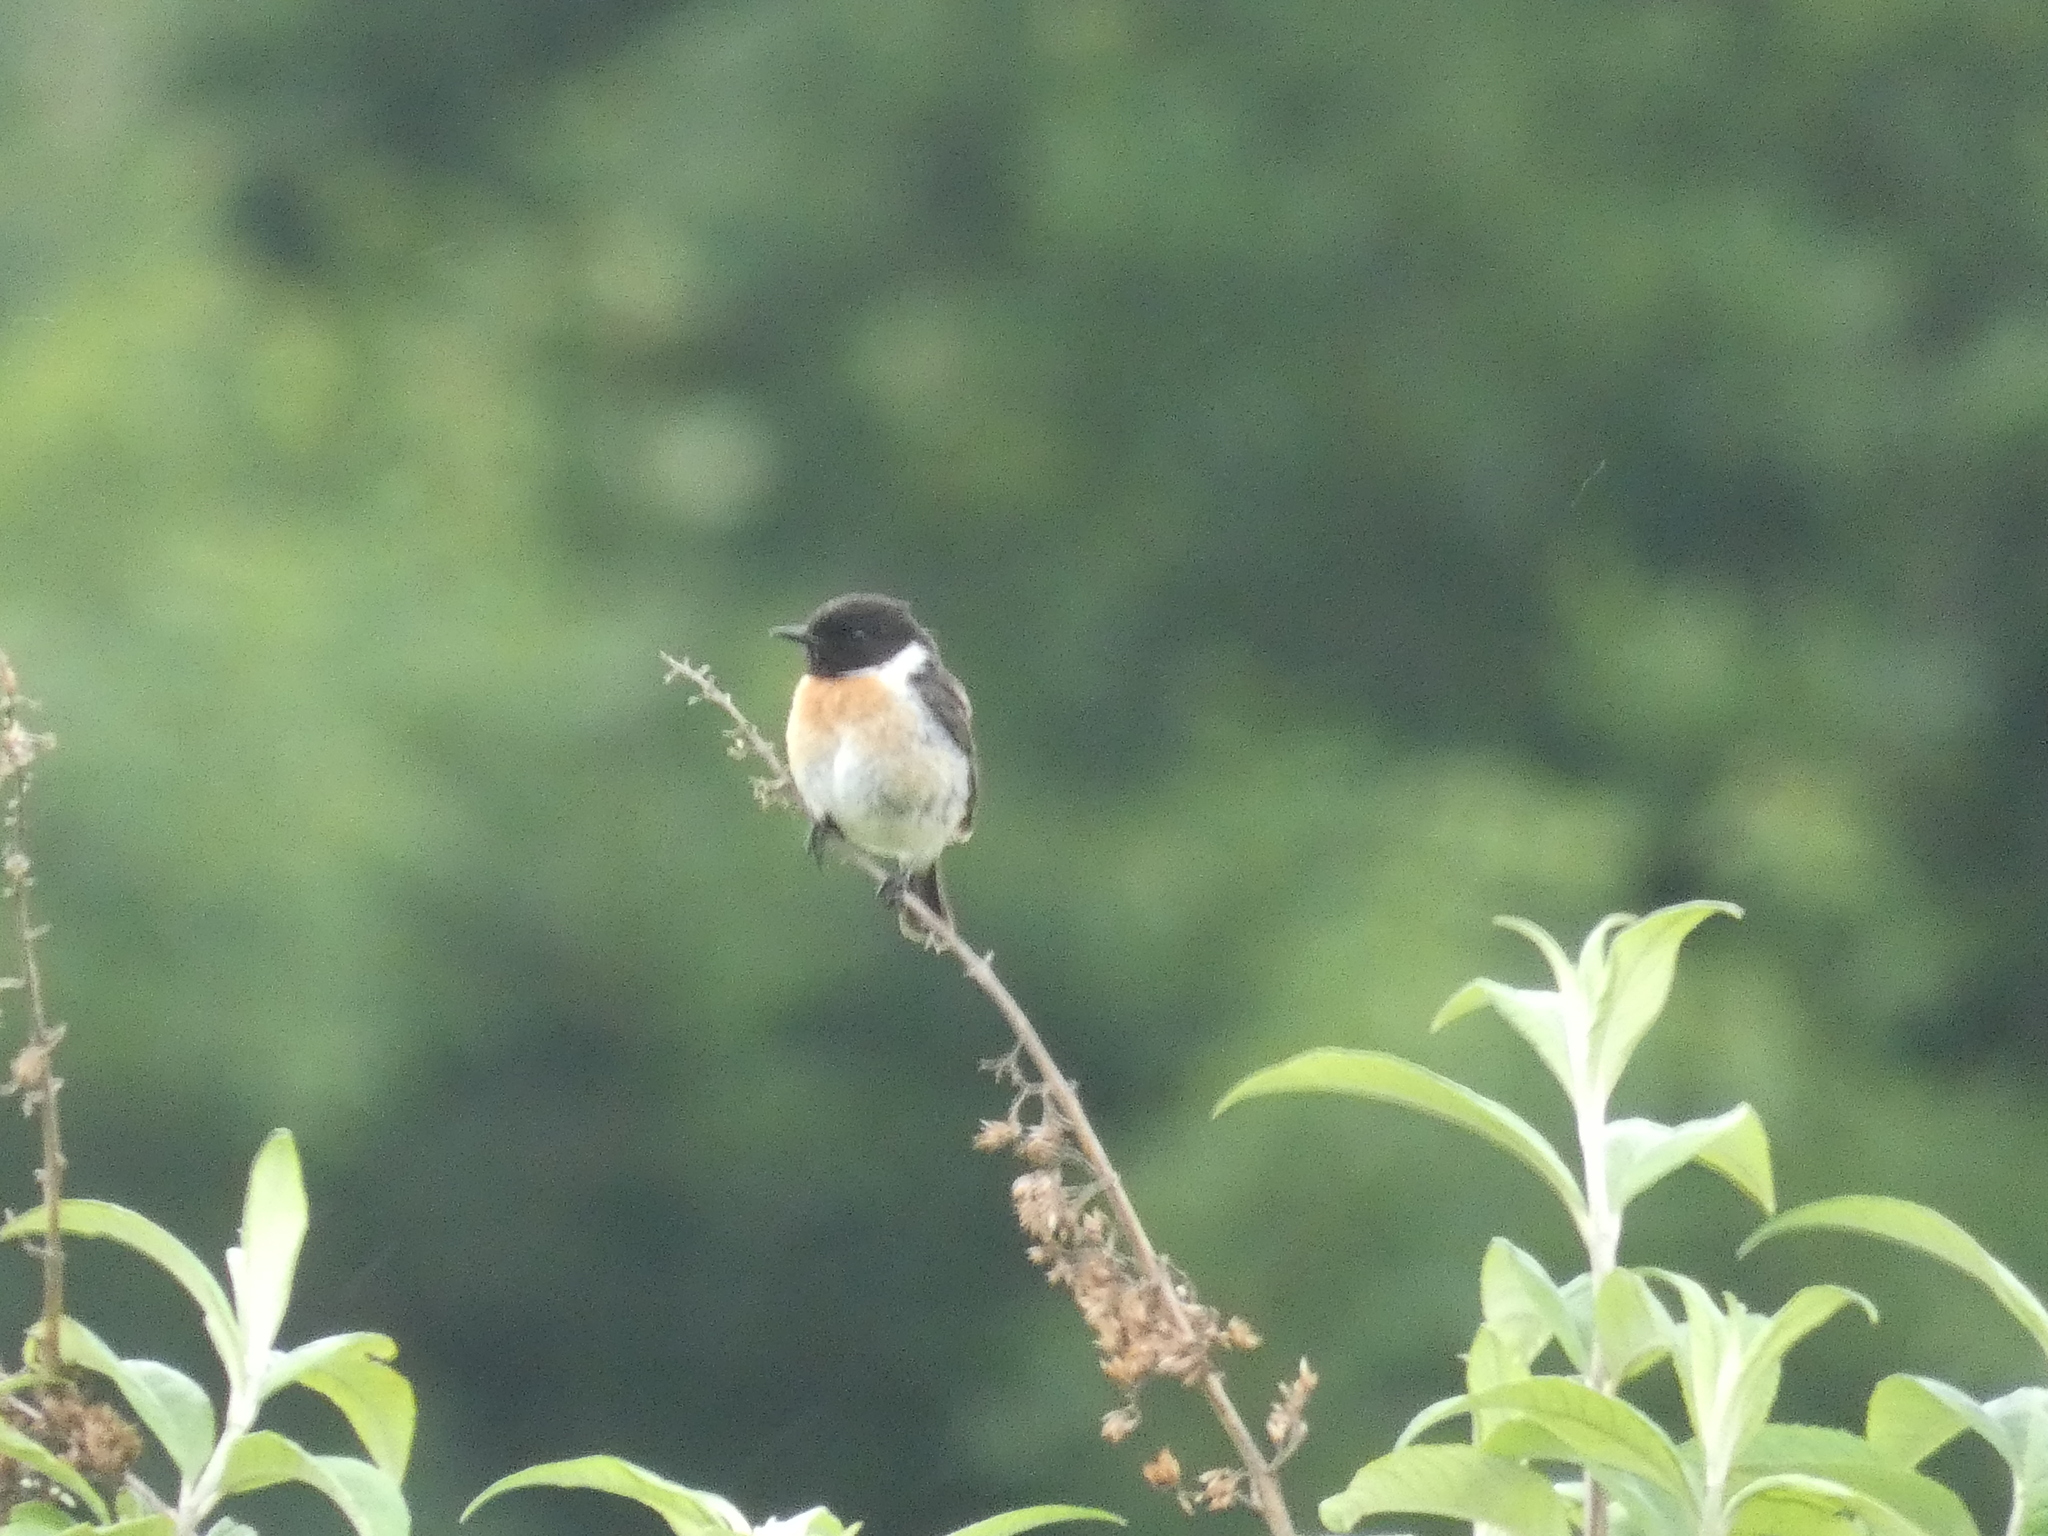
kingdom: Animalia
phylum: Chordata
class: Aves
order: Passeriformes
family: Muscicapidae
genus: Saxicola
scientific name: Saxicola rubicola
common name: European stonechat
